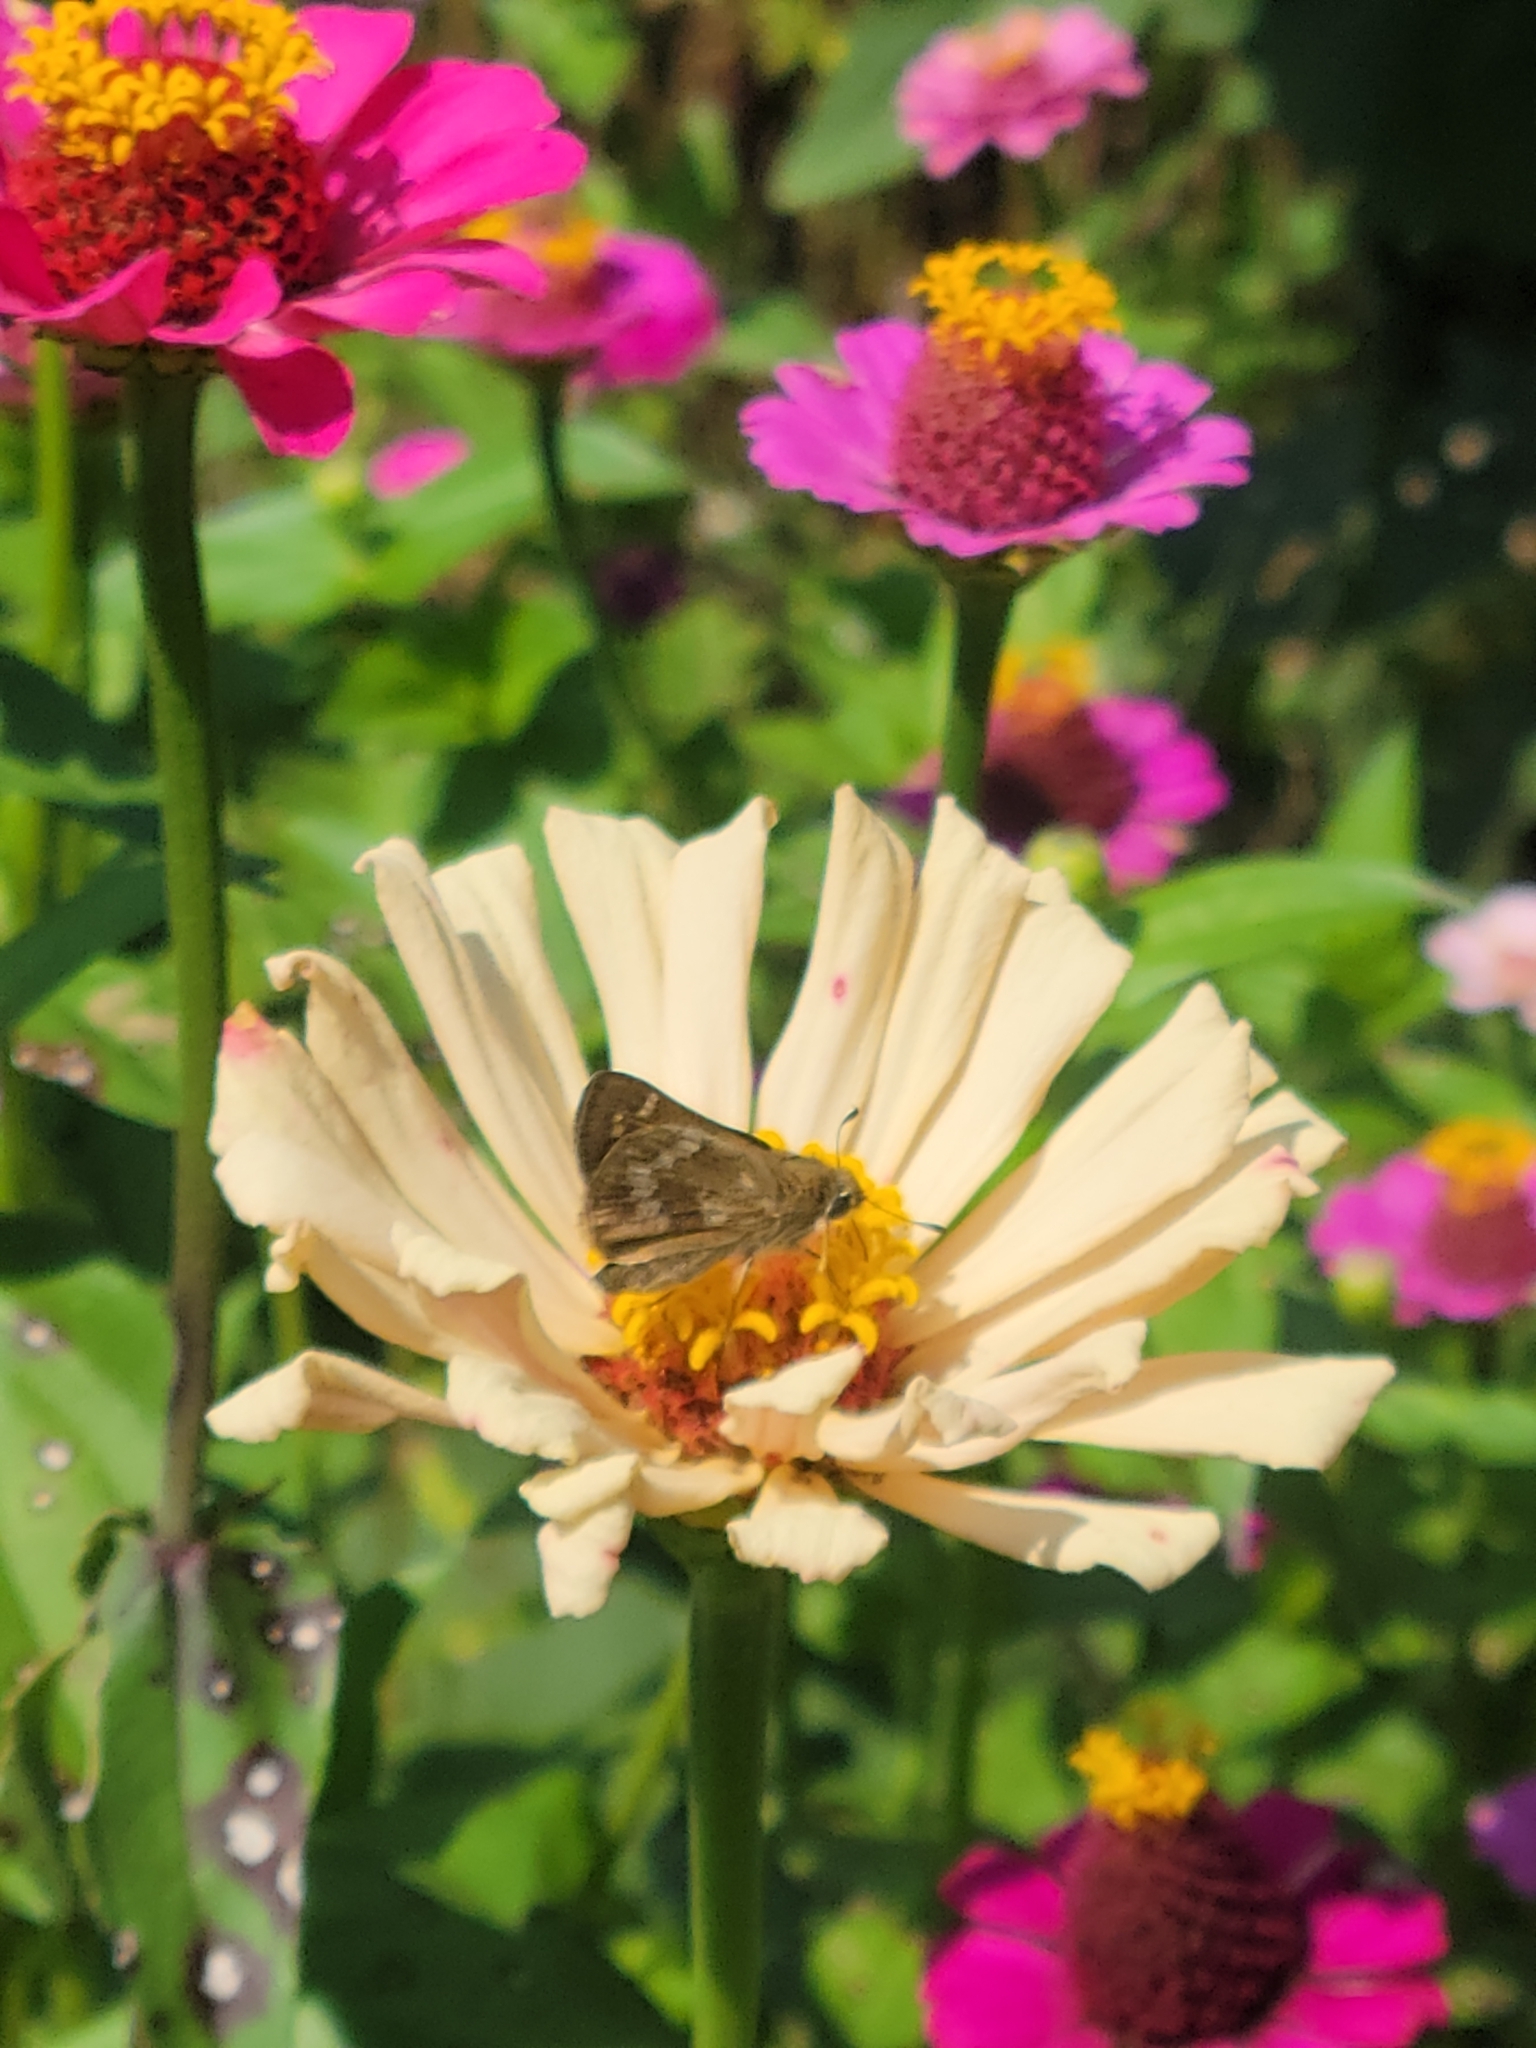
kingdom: Animalia
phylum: Arthropoda
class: Insecta
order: Lepidoptera
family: Hesperiidae
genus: Atalopedes
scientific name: Atalopedes
